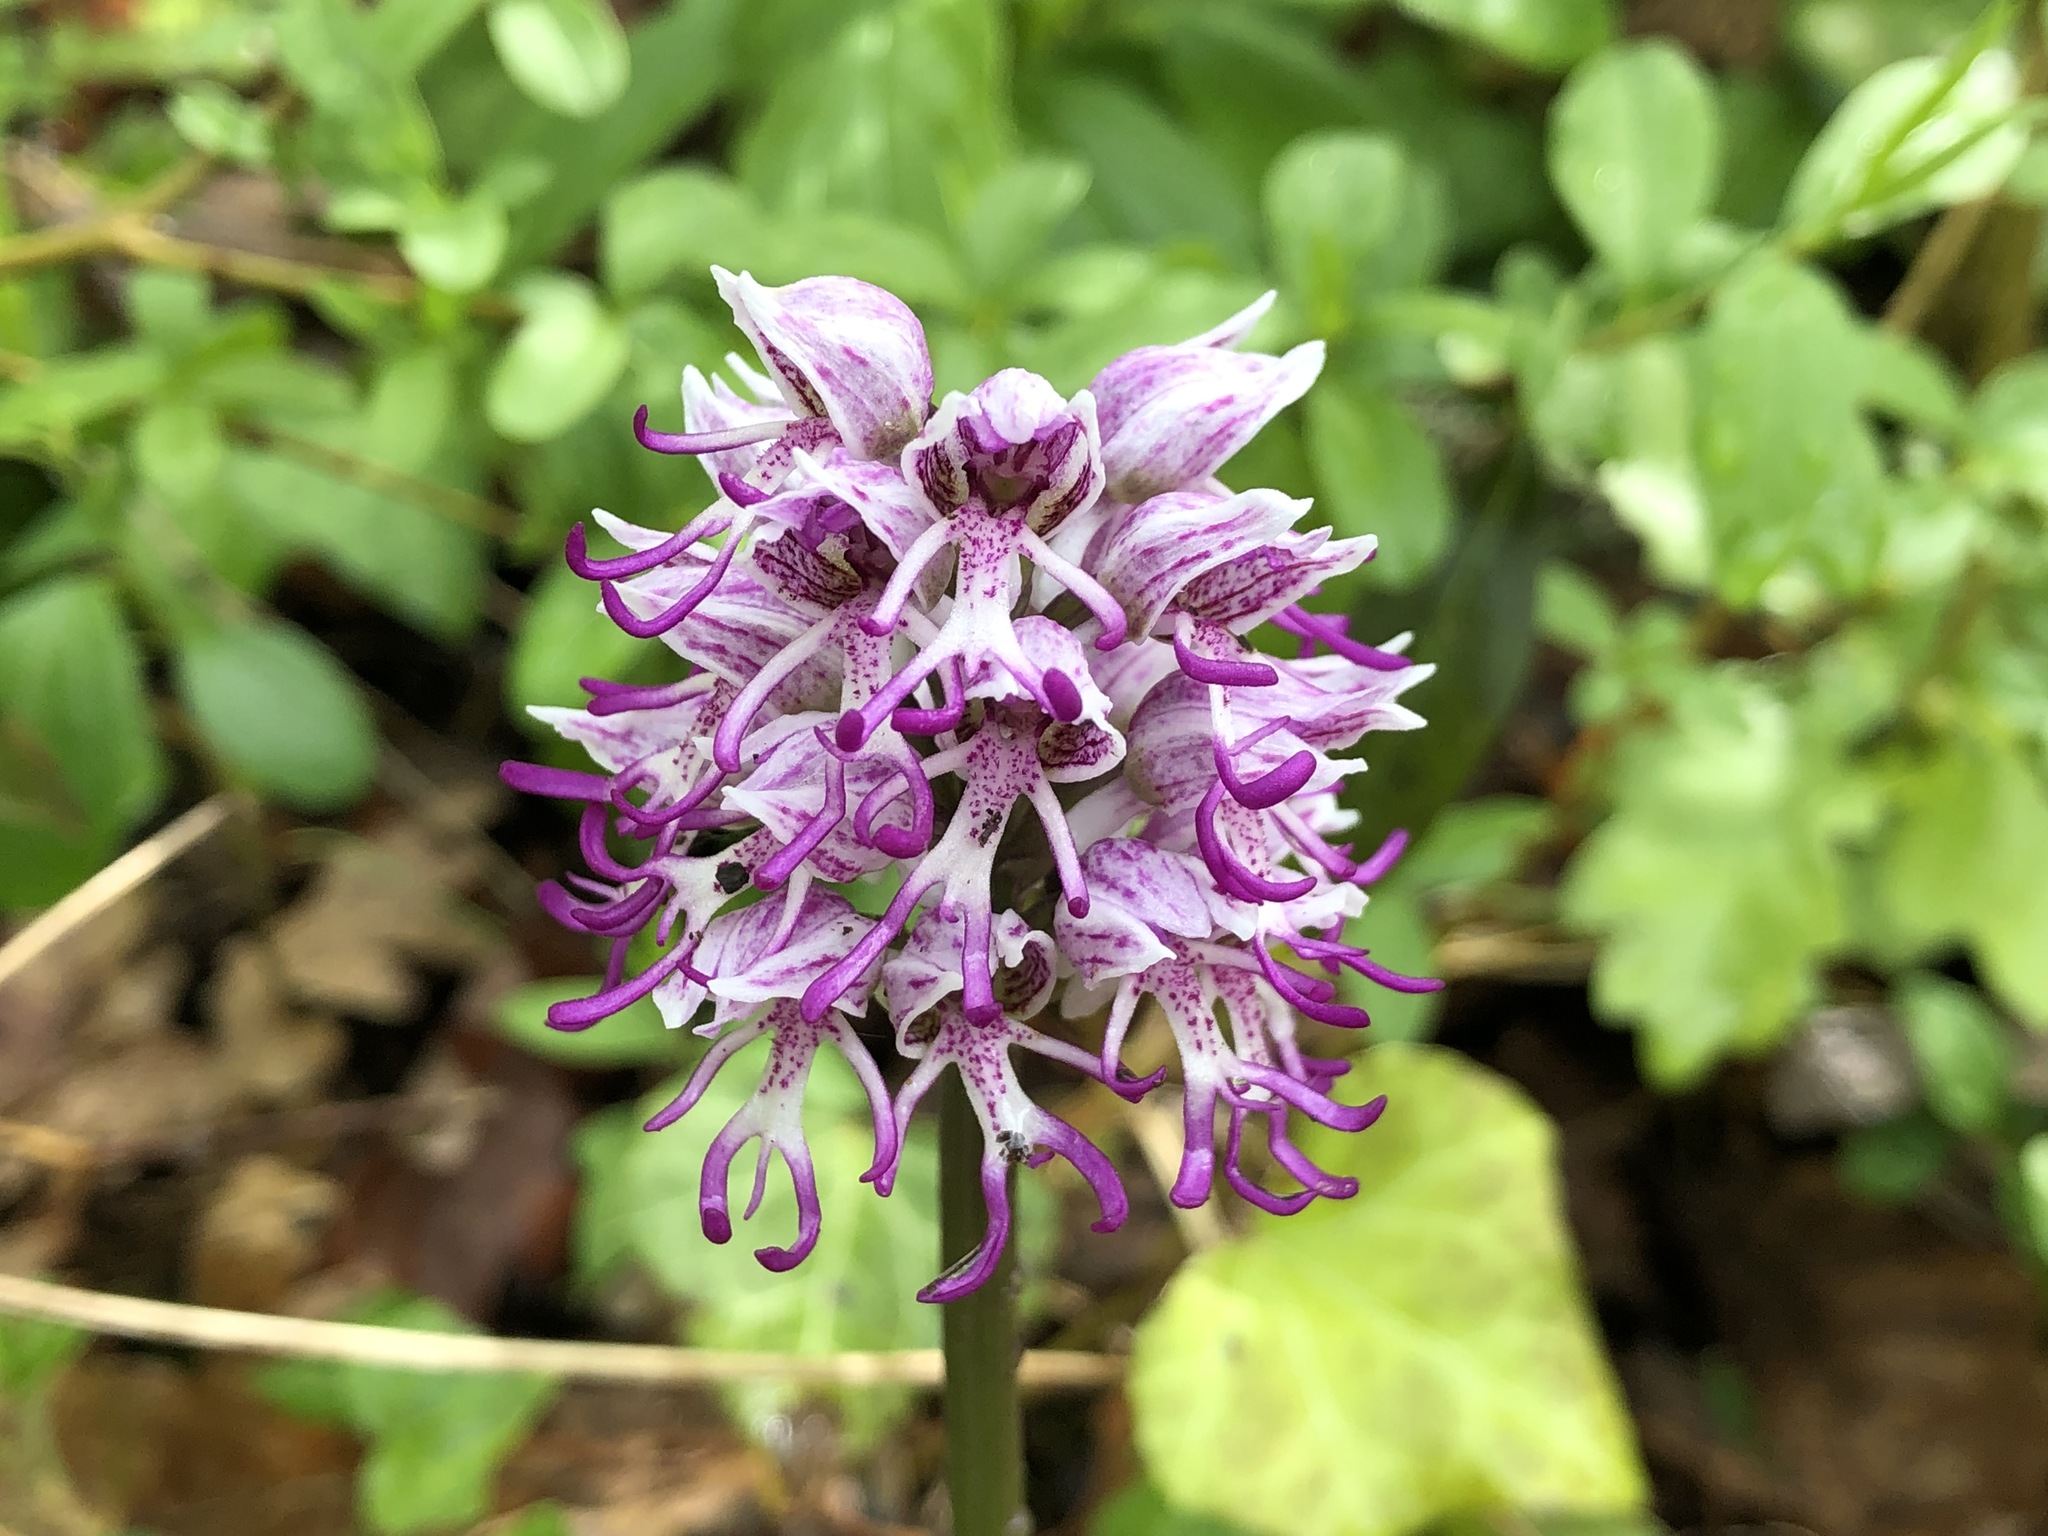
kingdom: Plantae
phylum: Tracheophyta
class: Liliopsida
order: Asparagales
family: Orchidaceae
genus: Orchis
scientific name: Orchis simia
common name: Monkey orchid
